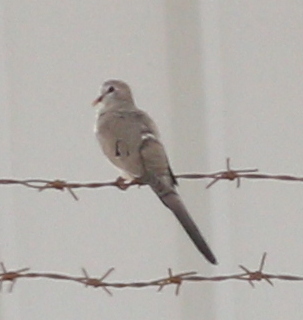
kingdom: Animalia
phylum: Chordata
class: Aves
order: Columbiformes
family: Columbidae
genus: Oena
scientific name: Oena capensis
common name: Namaqua dove
